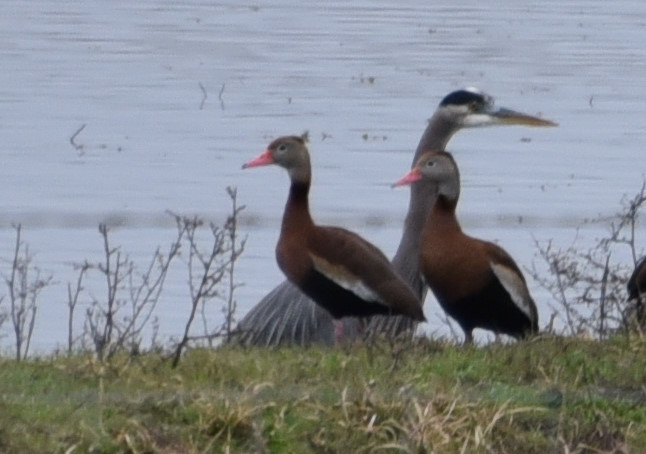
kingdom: Animalia
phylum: Chordata
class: Aves
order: Pelecaniformes
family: Ardeidae
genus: Ardea
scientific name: Ardea herodias
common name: Great blue heron
